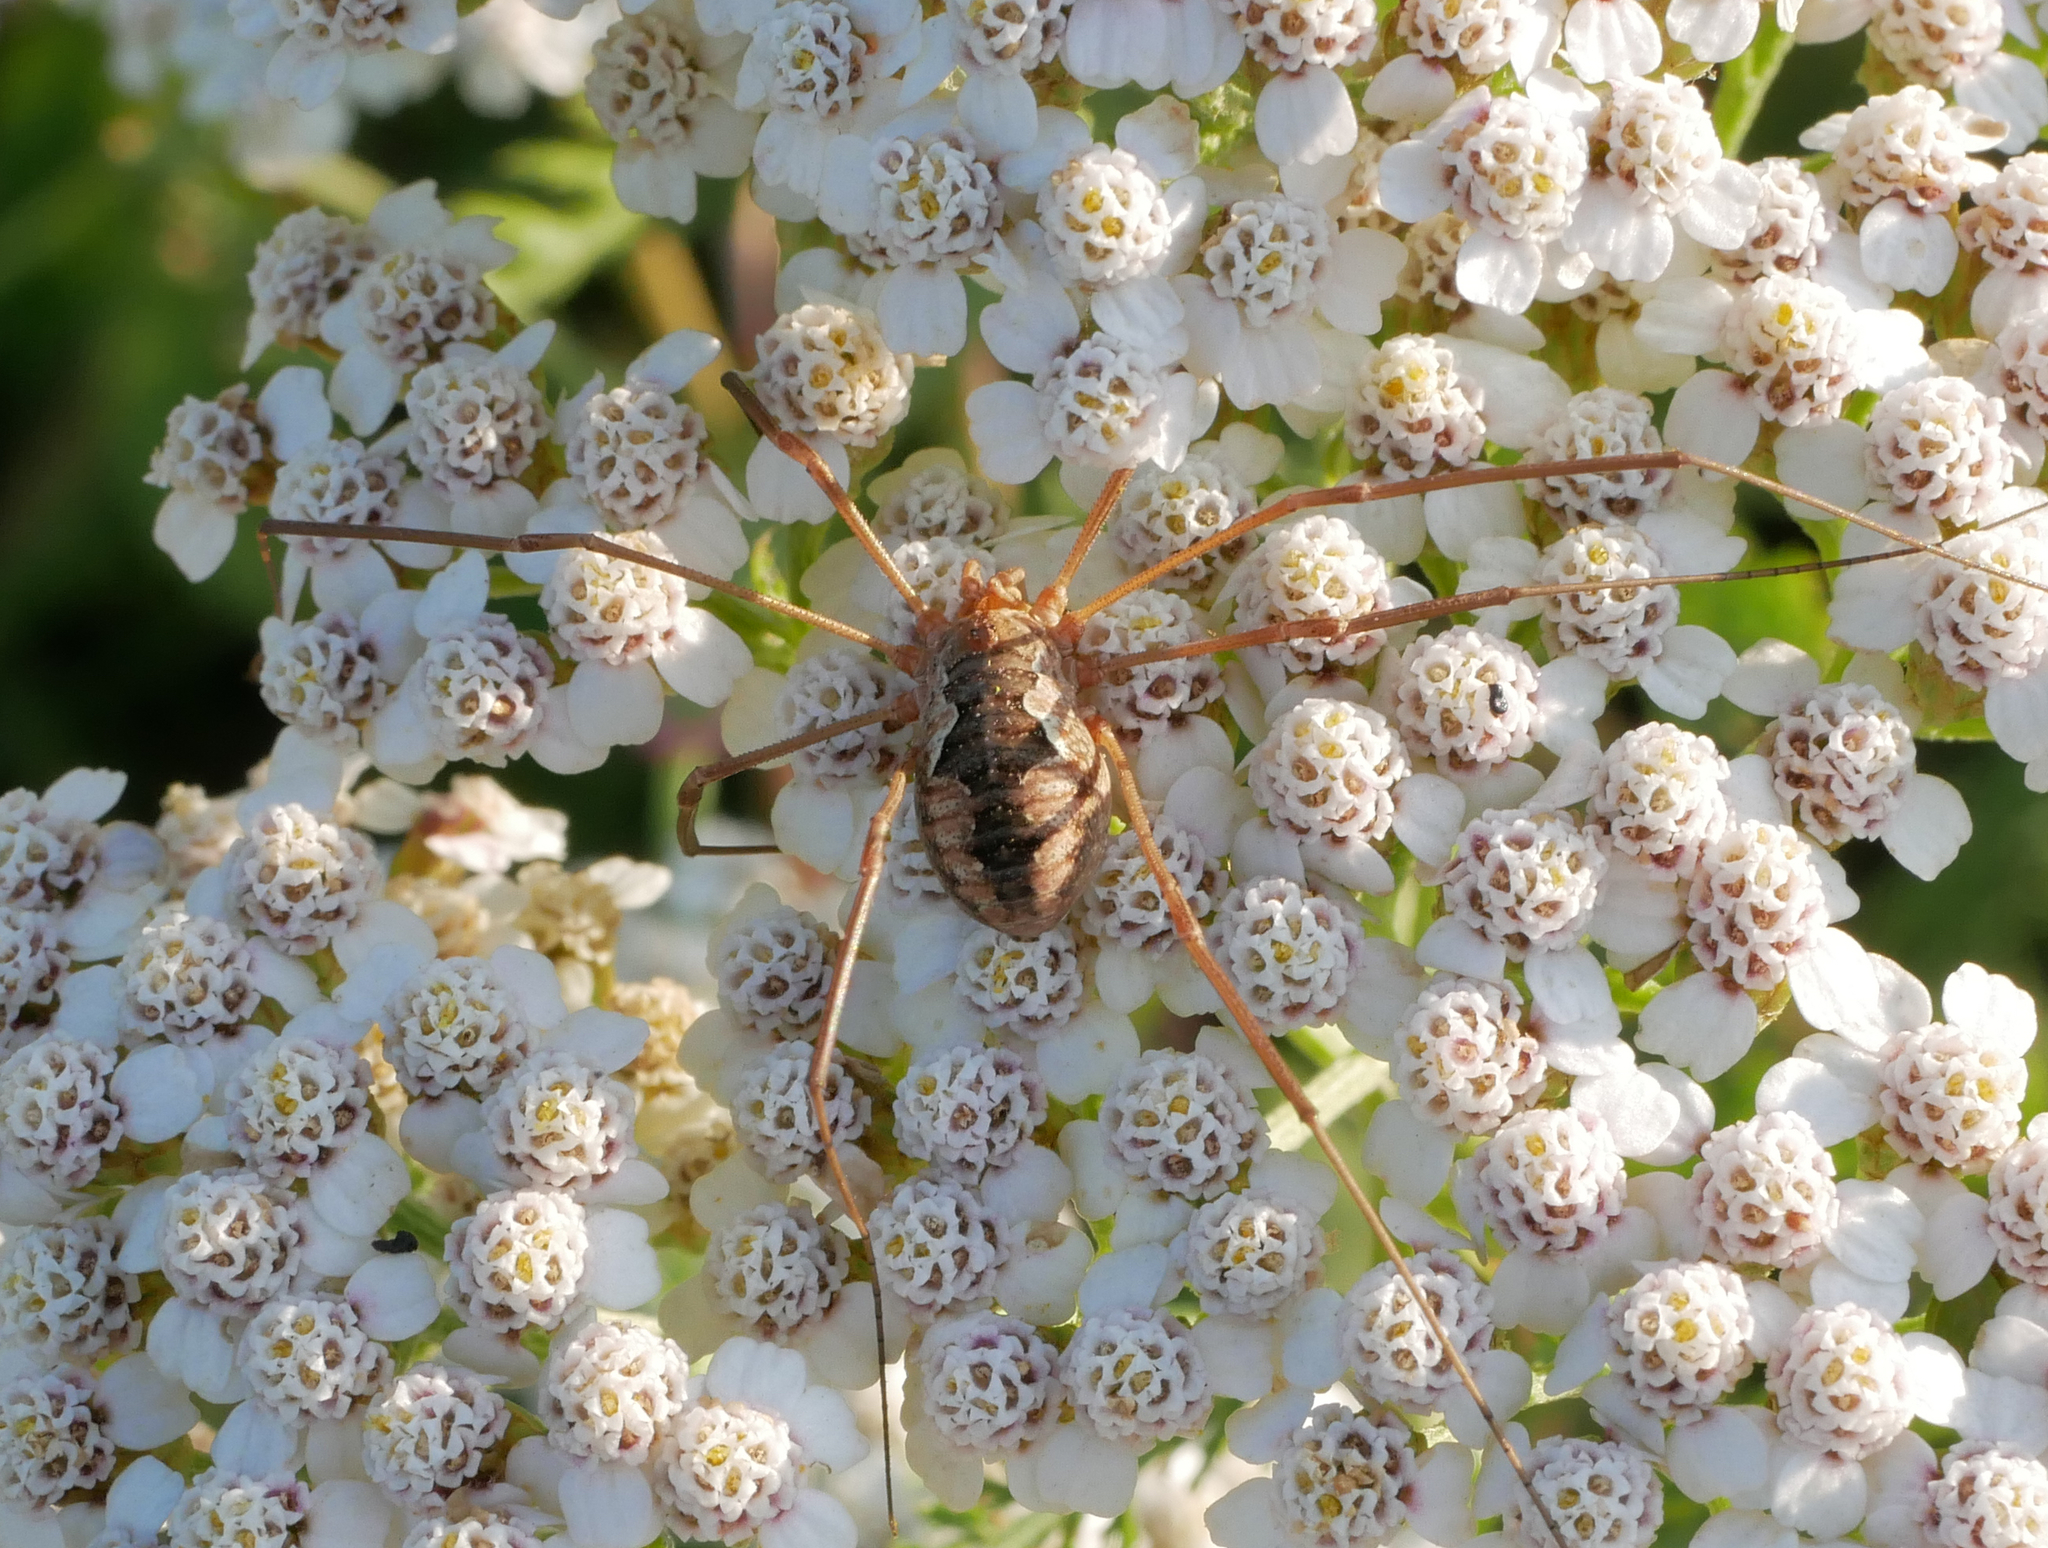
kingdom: Animalia
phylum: Arthropoda
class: Arachnida
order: Opiliones
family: Phalangiidae
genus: Phalangium
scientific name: Phalangium opilio
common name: Daddy longleg
